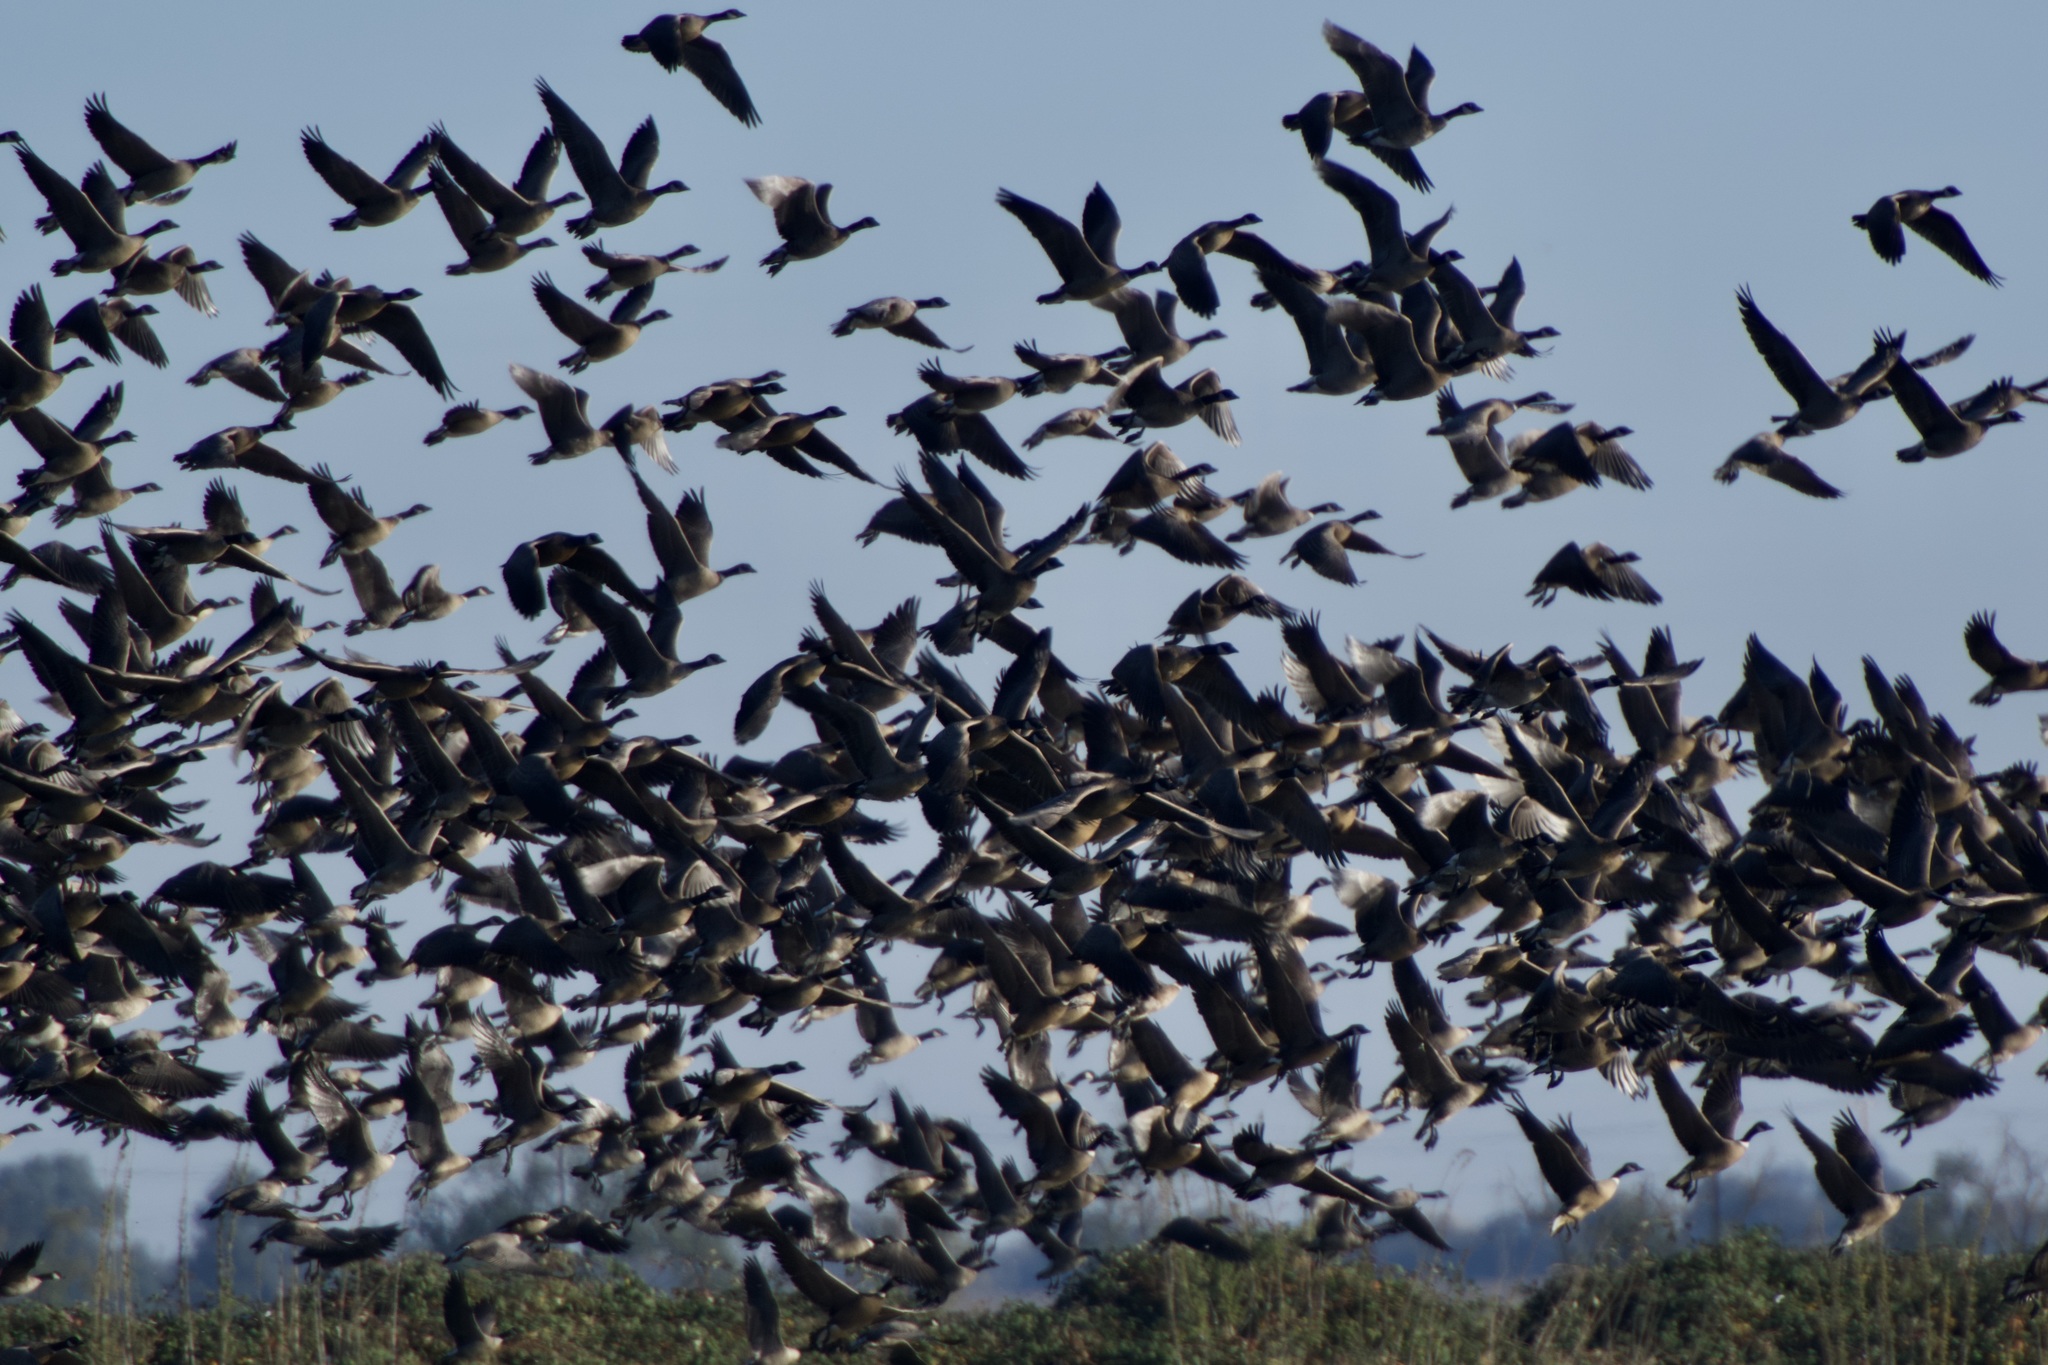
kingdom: Animalia
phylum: Chordata
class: Aves
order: Anseriformes
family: Anatidae
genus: Branta
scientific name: Branta hutchinsii
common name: Cackling goose
